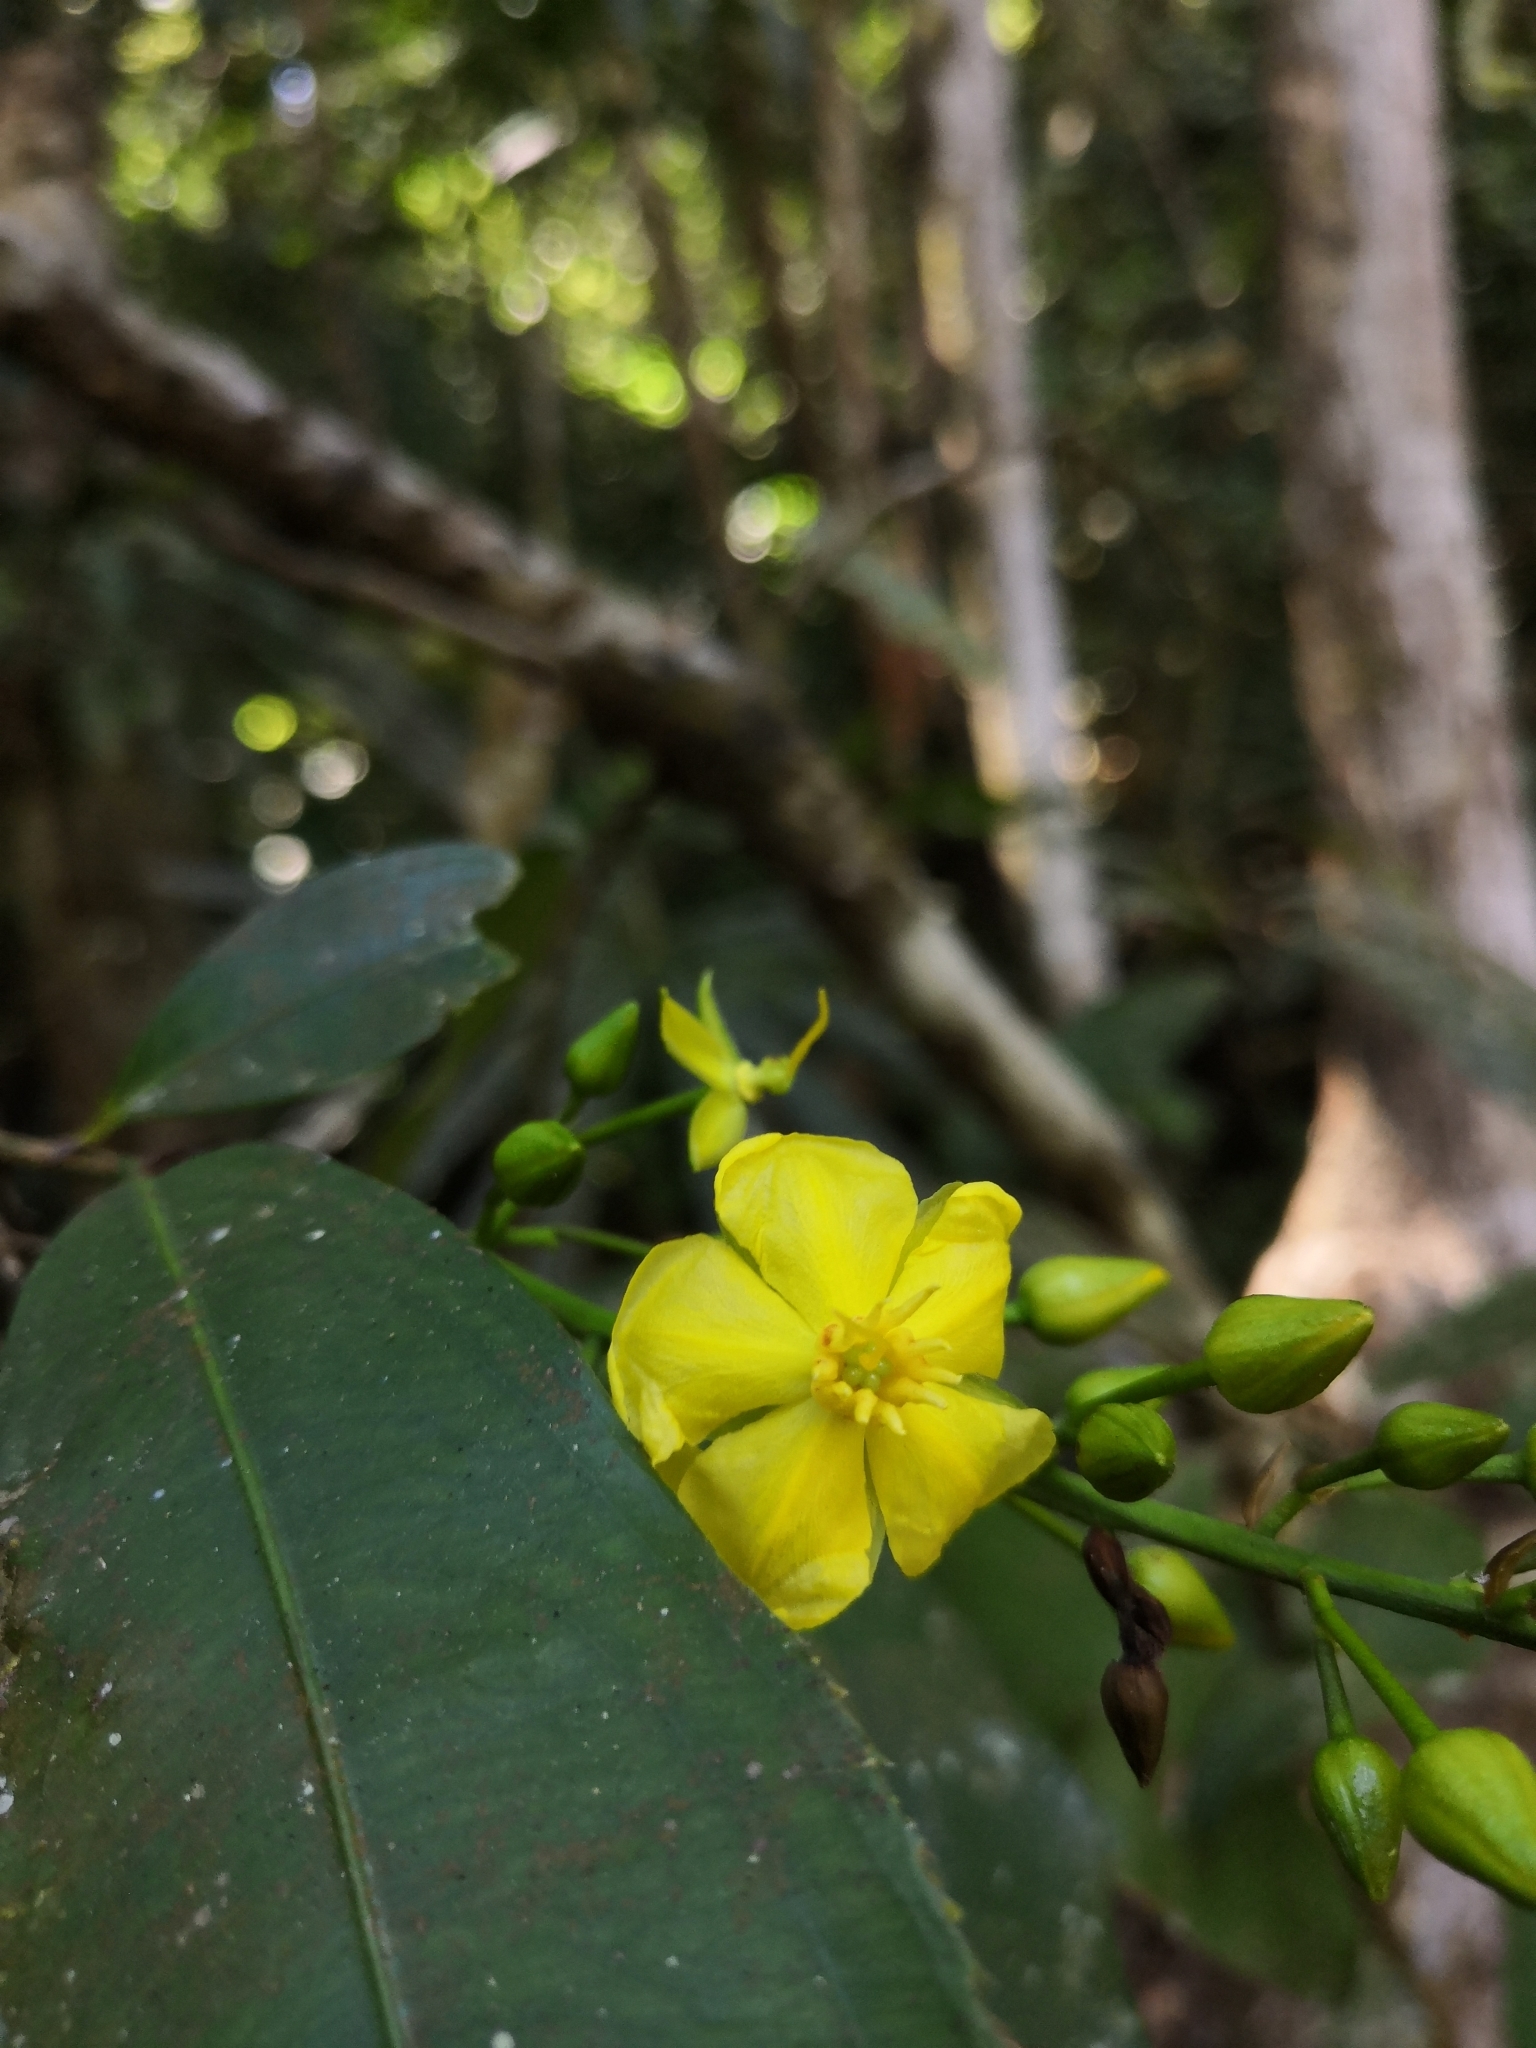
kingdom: Plantae
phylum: Tracheophyta
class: Magnoliopsida
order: Malpighiales
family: Ochnaceae
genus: Ouratea
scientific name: Ouratea madrensis
